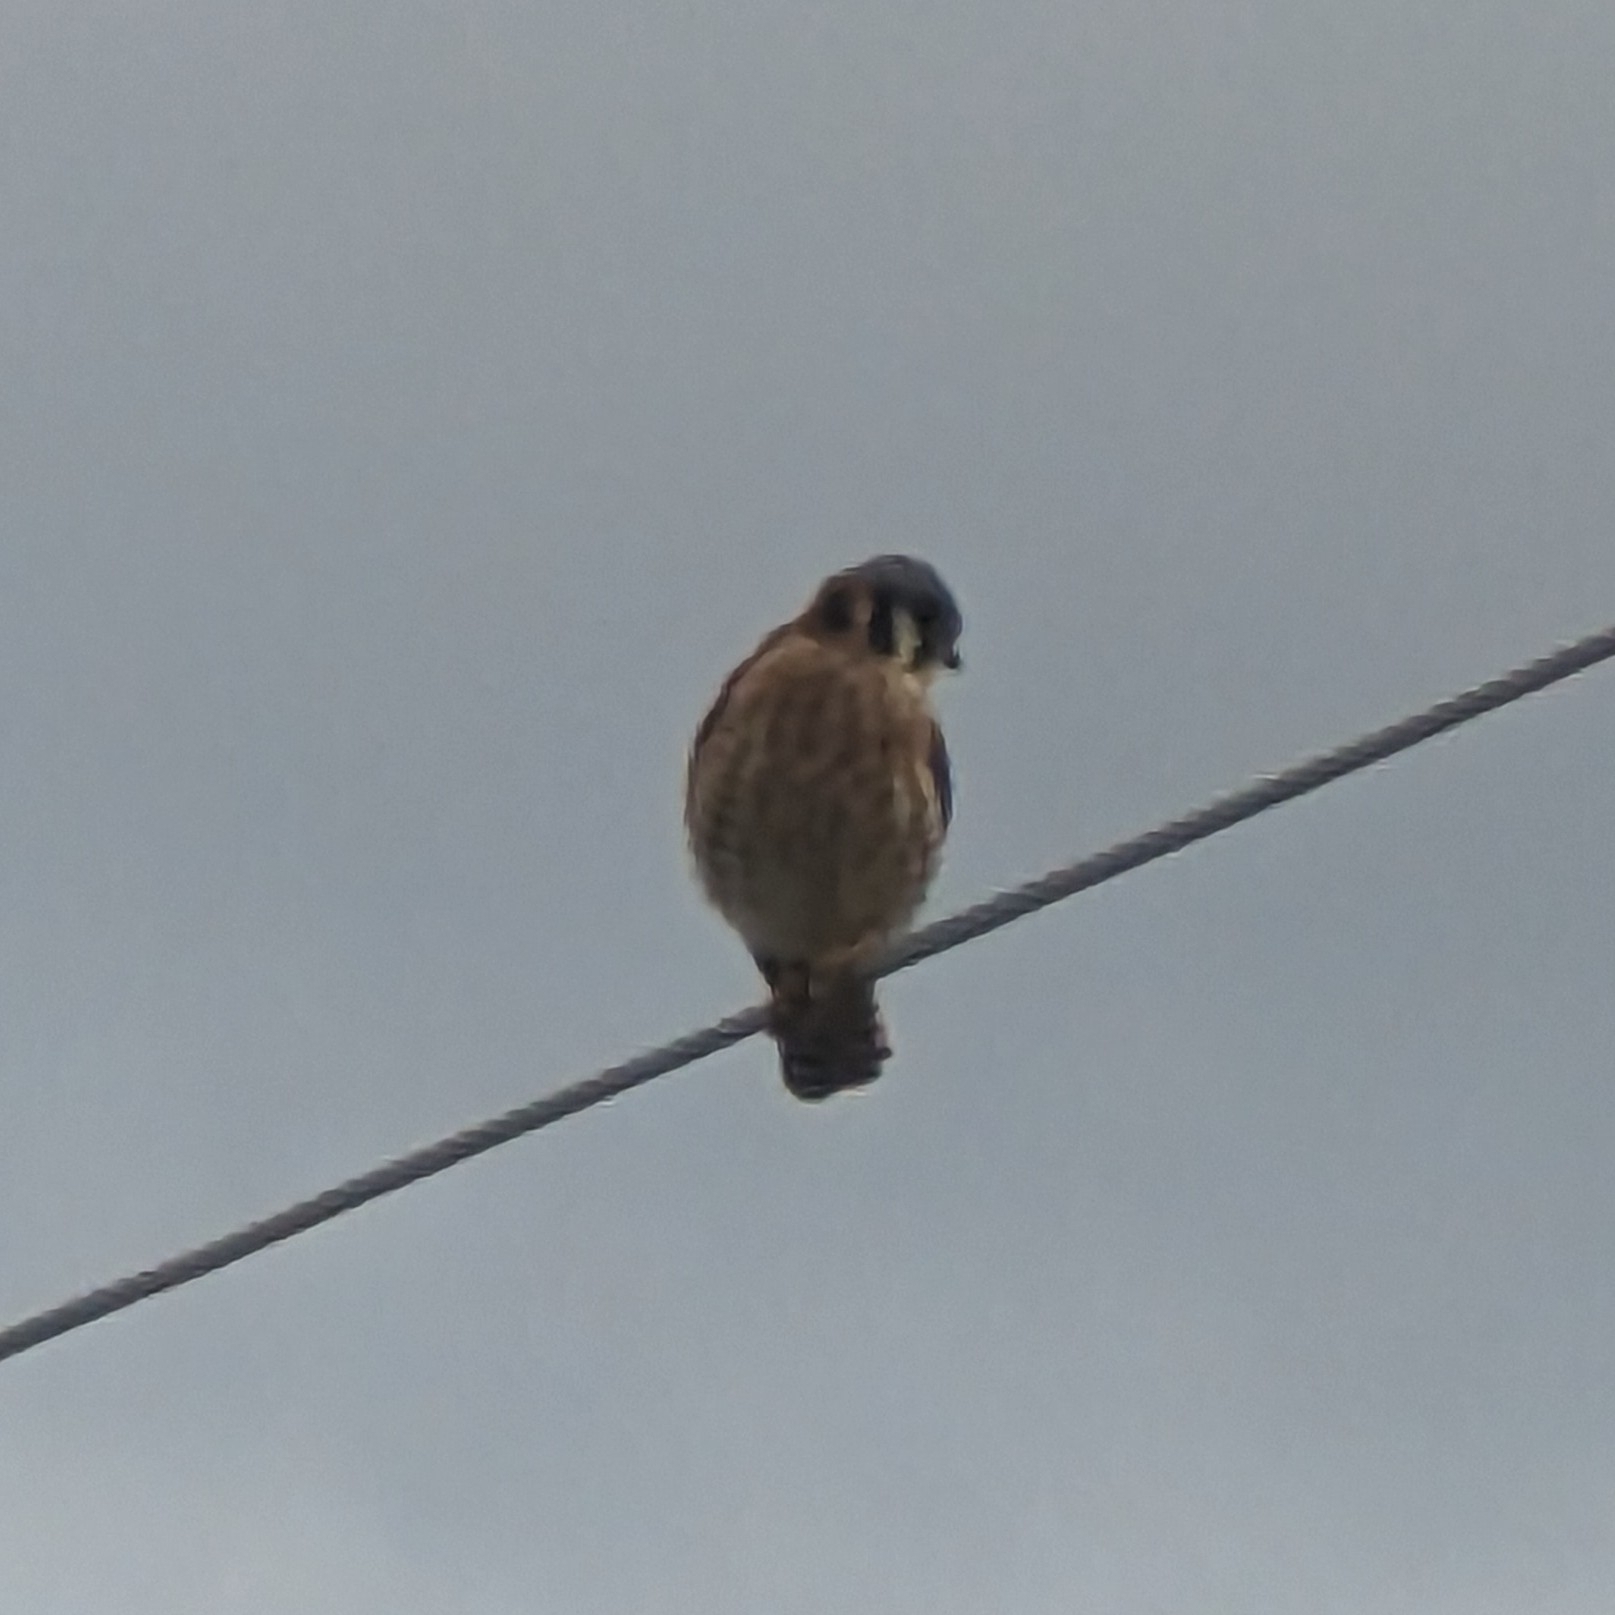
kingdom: Animalia
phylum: Chordata
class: Aves
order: Falconiformes
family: Falconidae
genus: Falco
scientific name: Falco sparverius
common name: American kestrel
